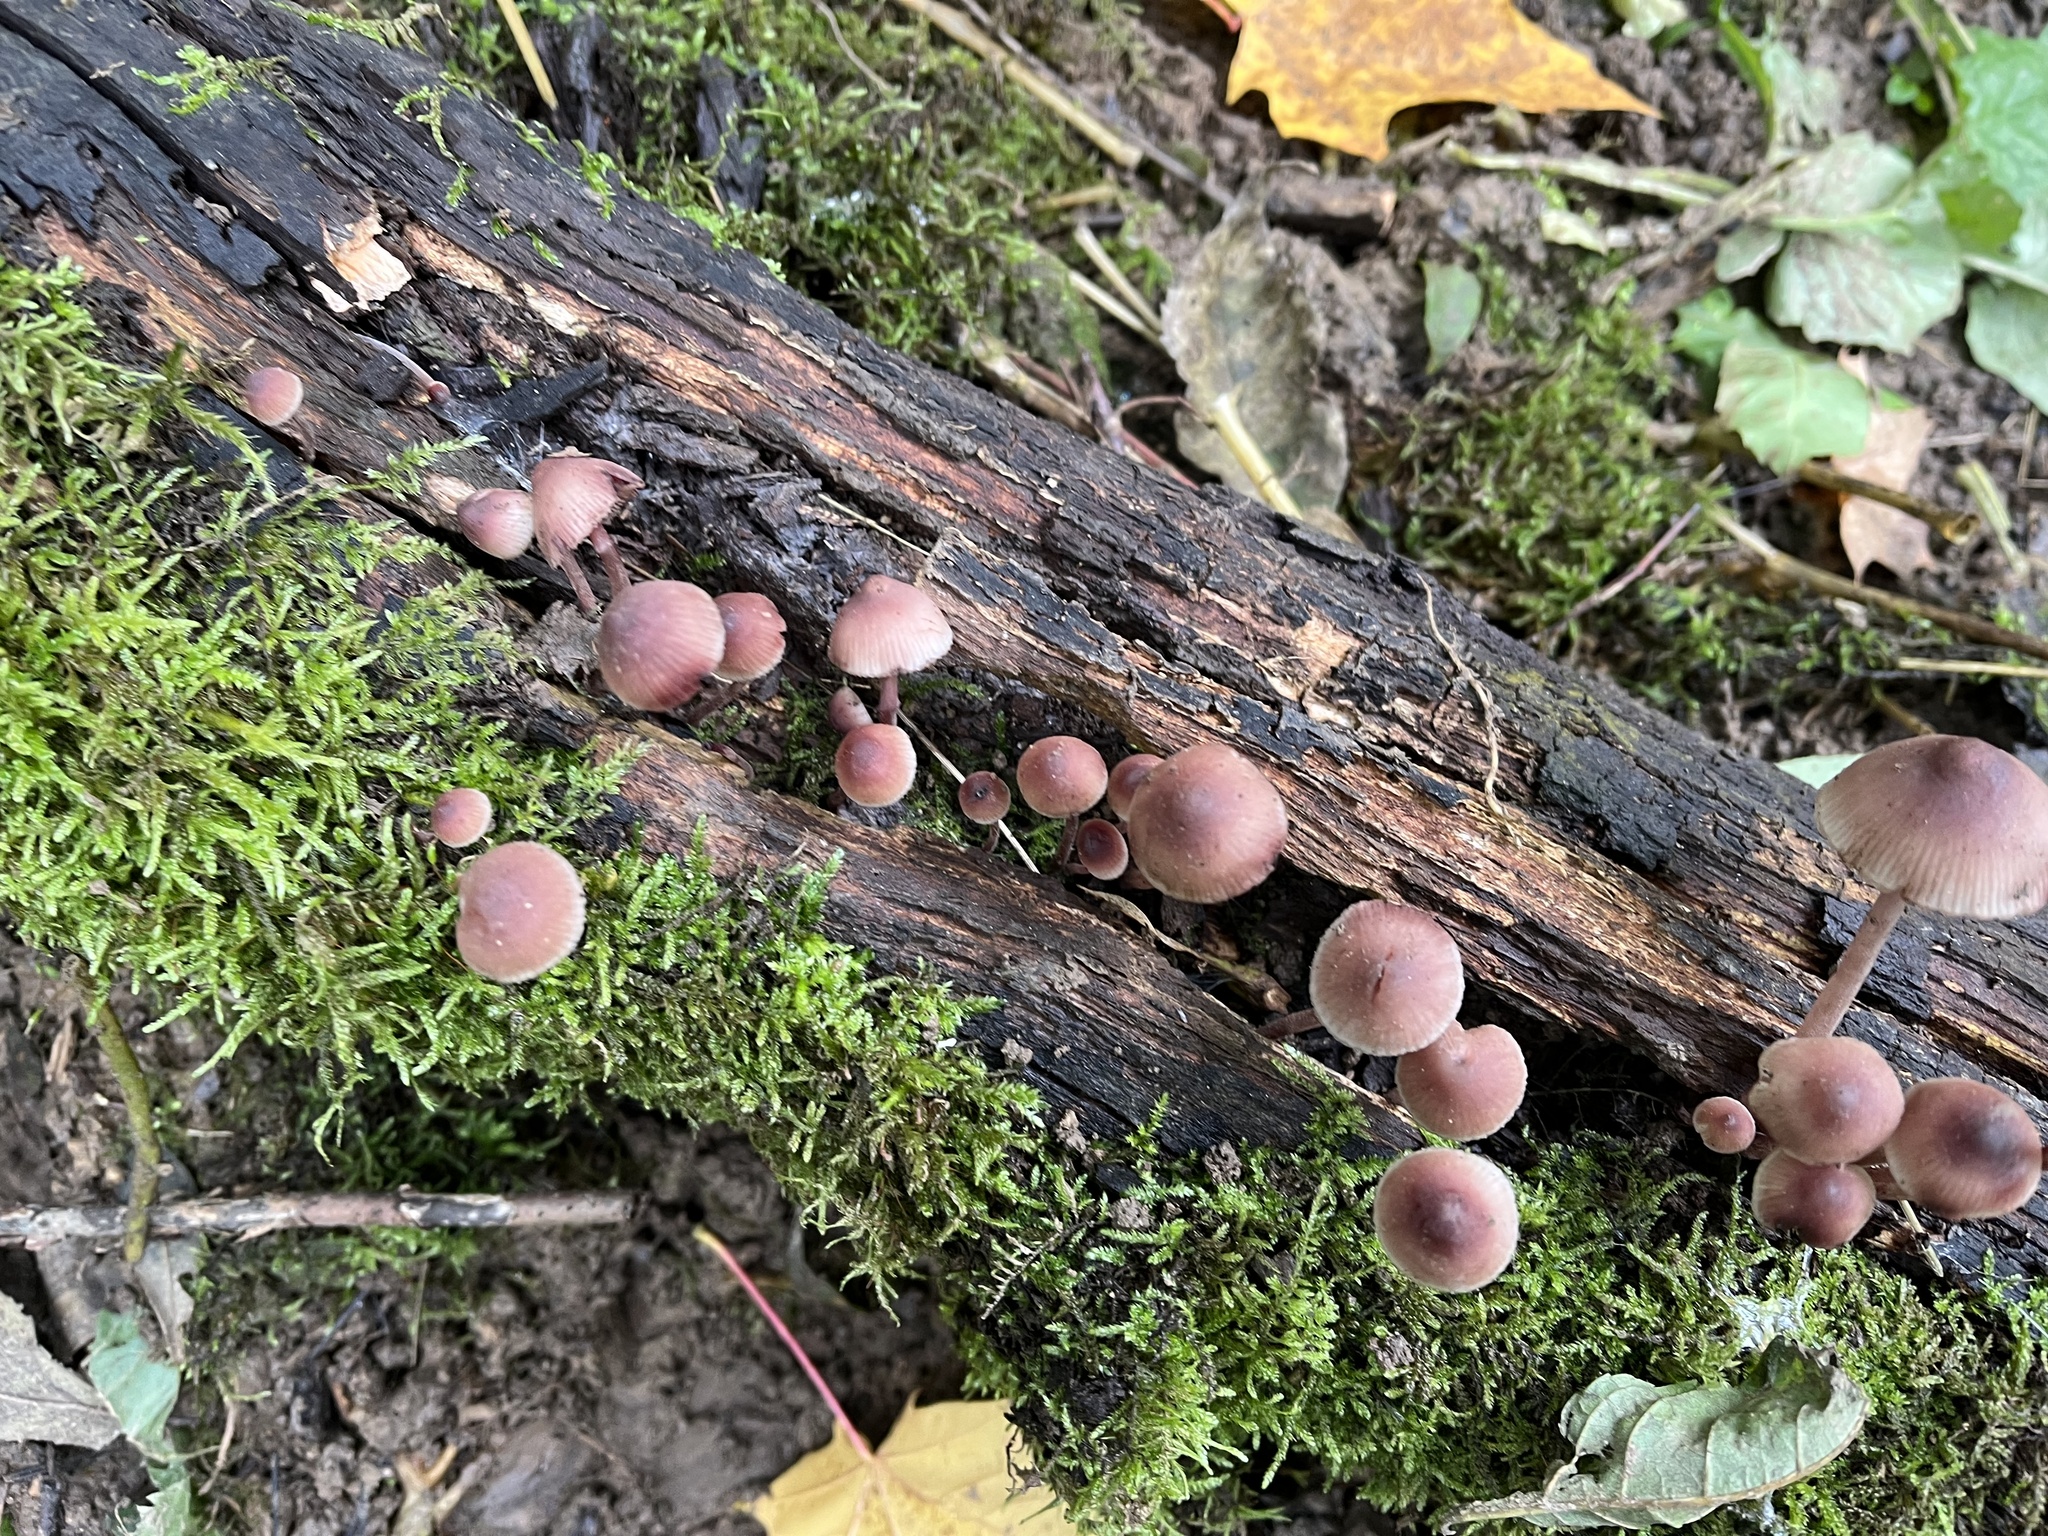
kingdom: Fungi
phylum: Basidiomycota
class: Agaricomycetes
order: Agaricales
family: Mycenaceae
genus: Mycena
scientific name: Mycena haematopus
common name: Burgundydrop bonnet
